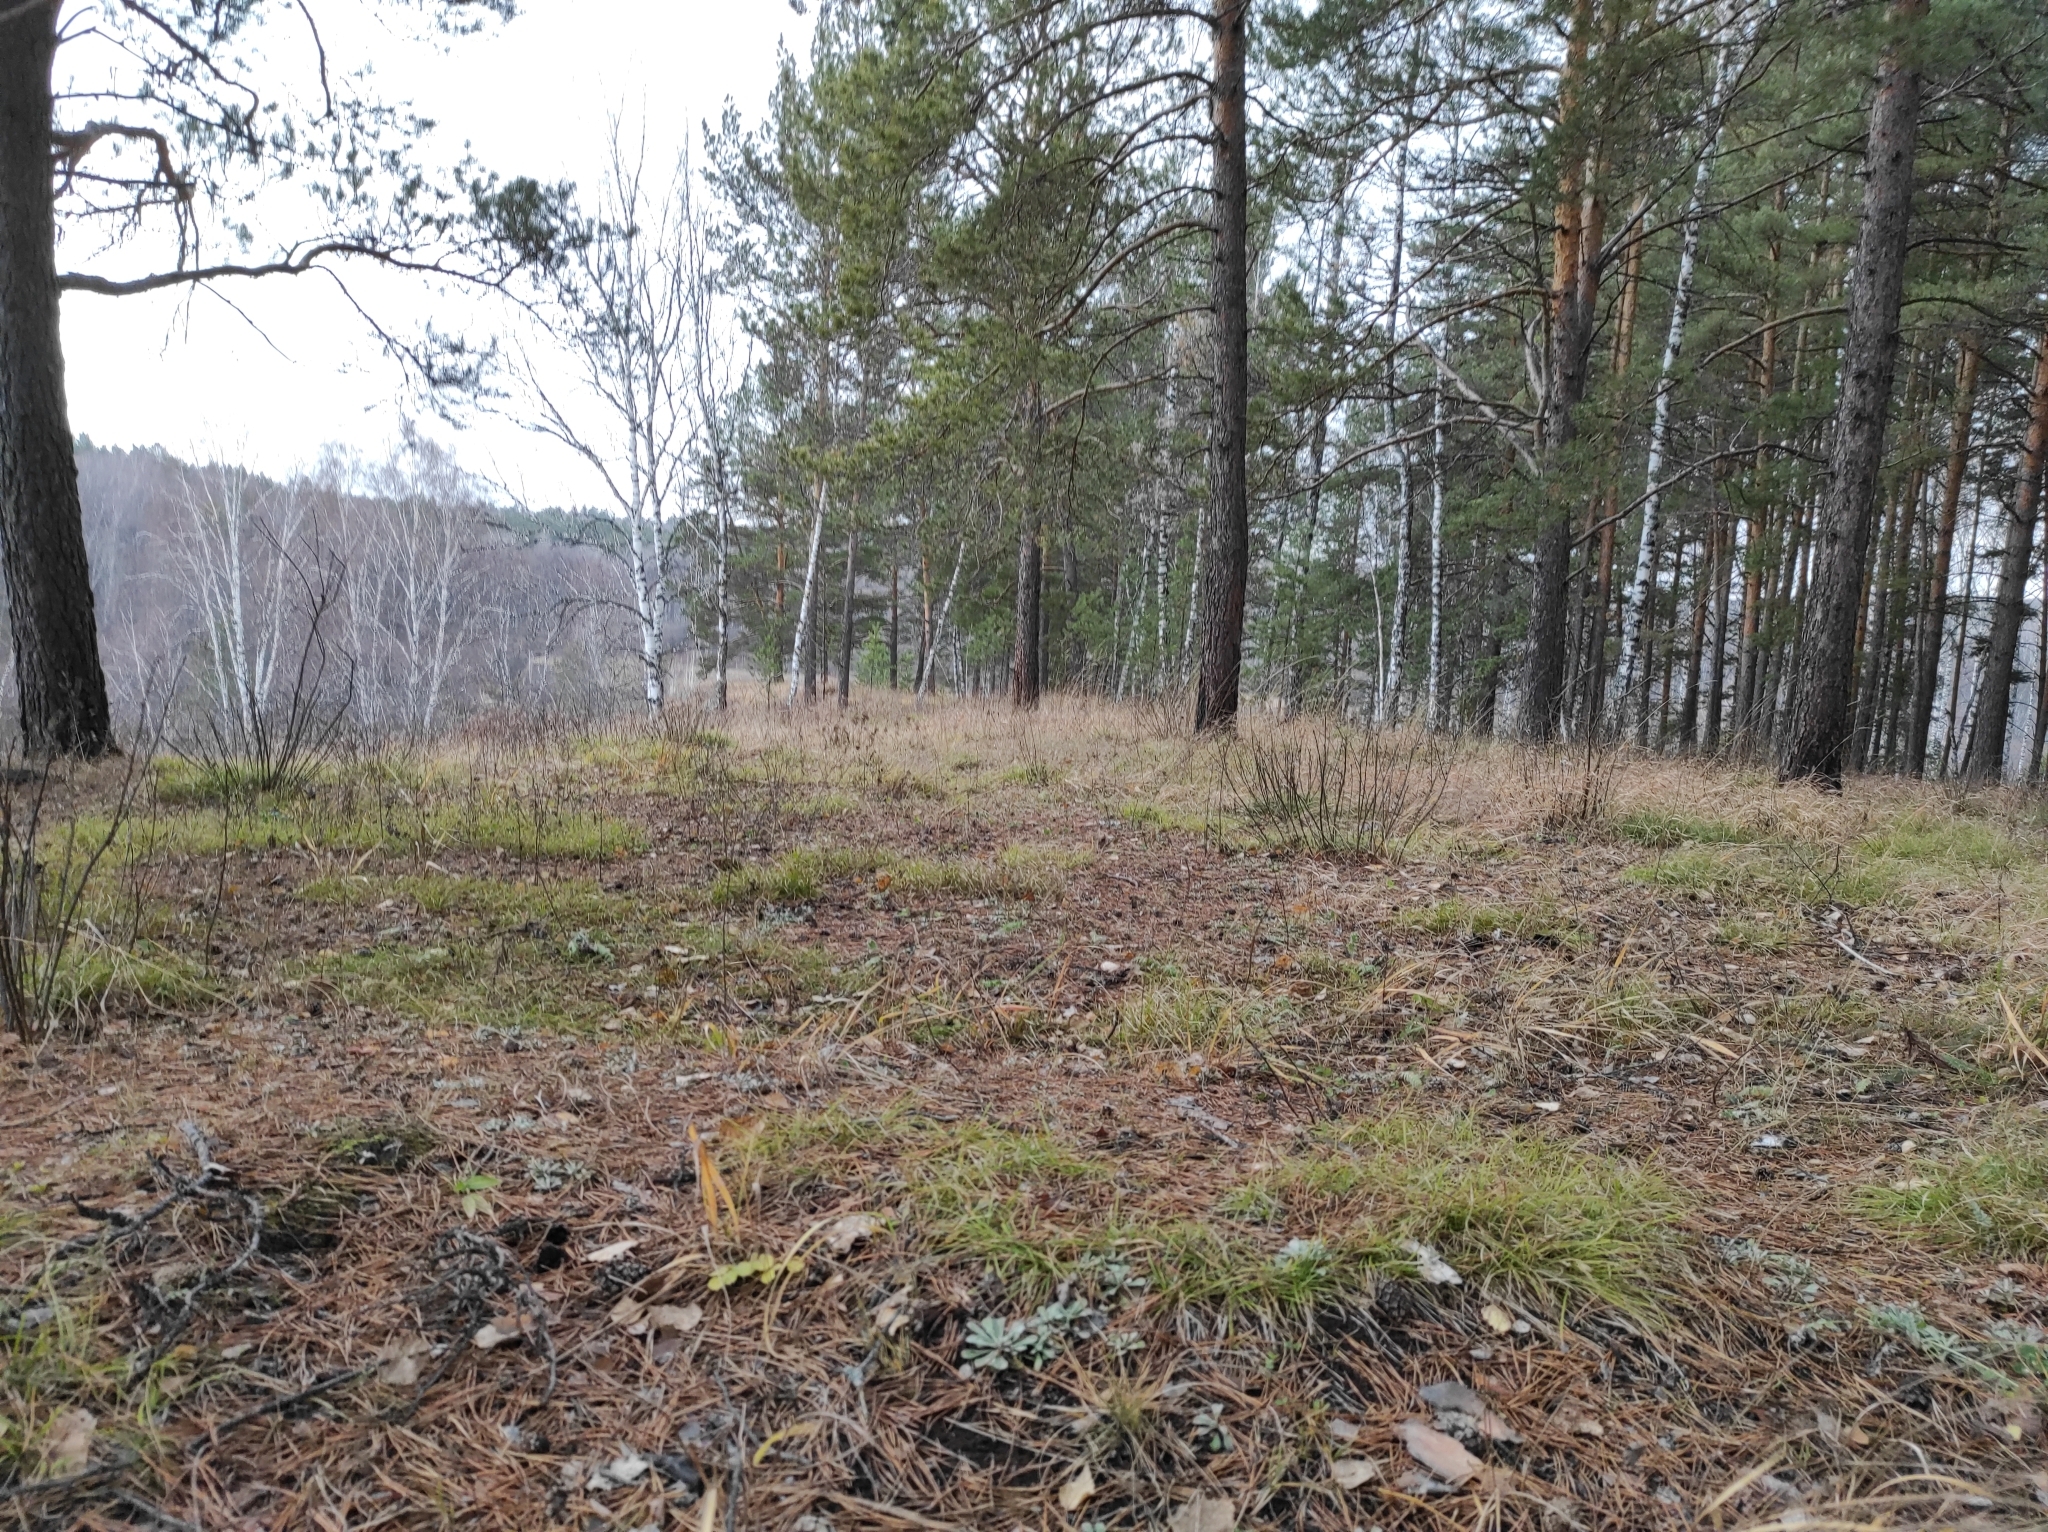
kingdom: Plantae
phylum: Tracheophyta
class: Magnoliopsida
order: Lamiales
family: Plantaginaceae
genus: Veronica
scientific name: Veronica chamaedrys
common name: Germander speedwell
